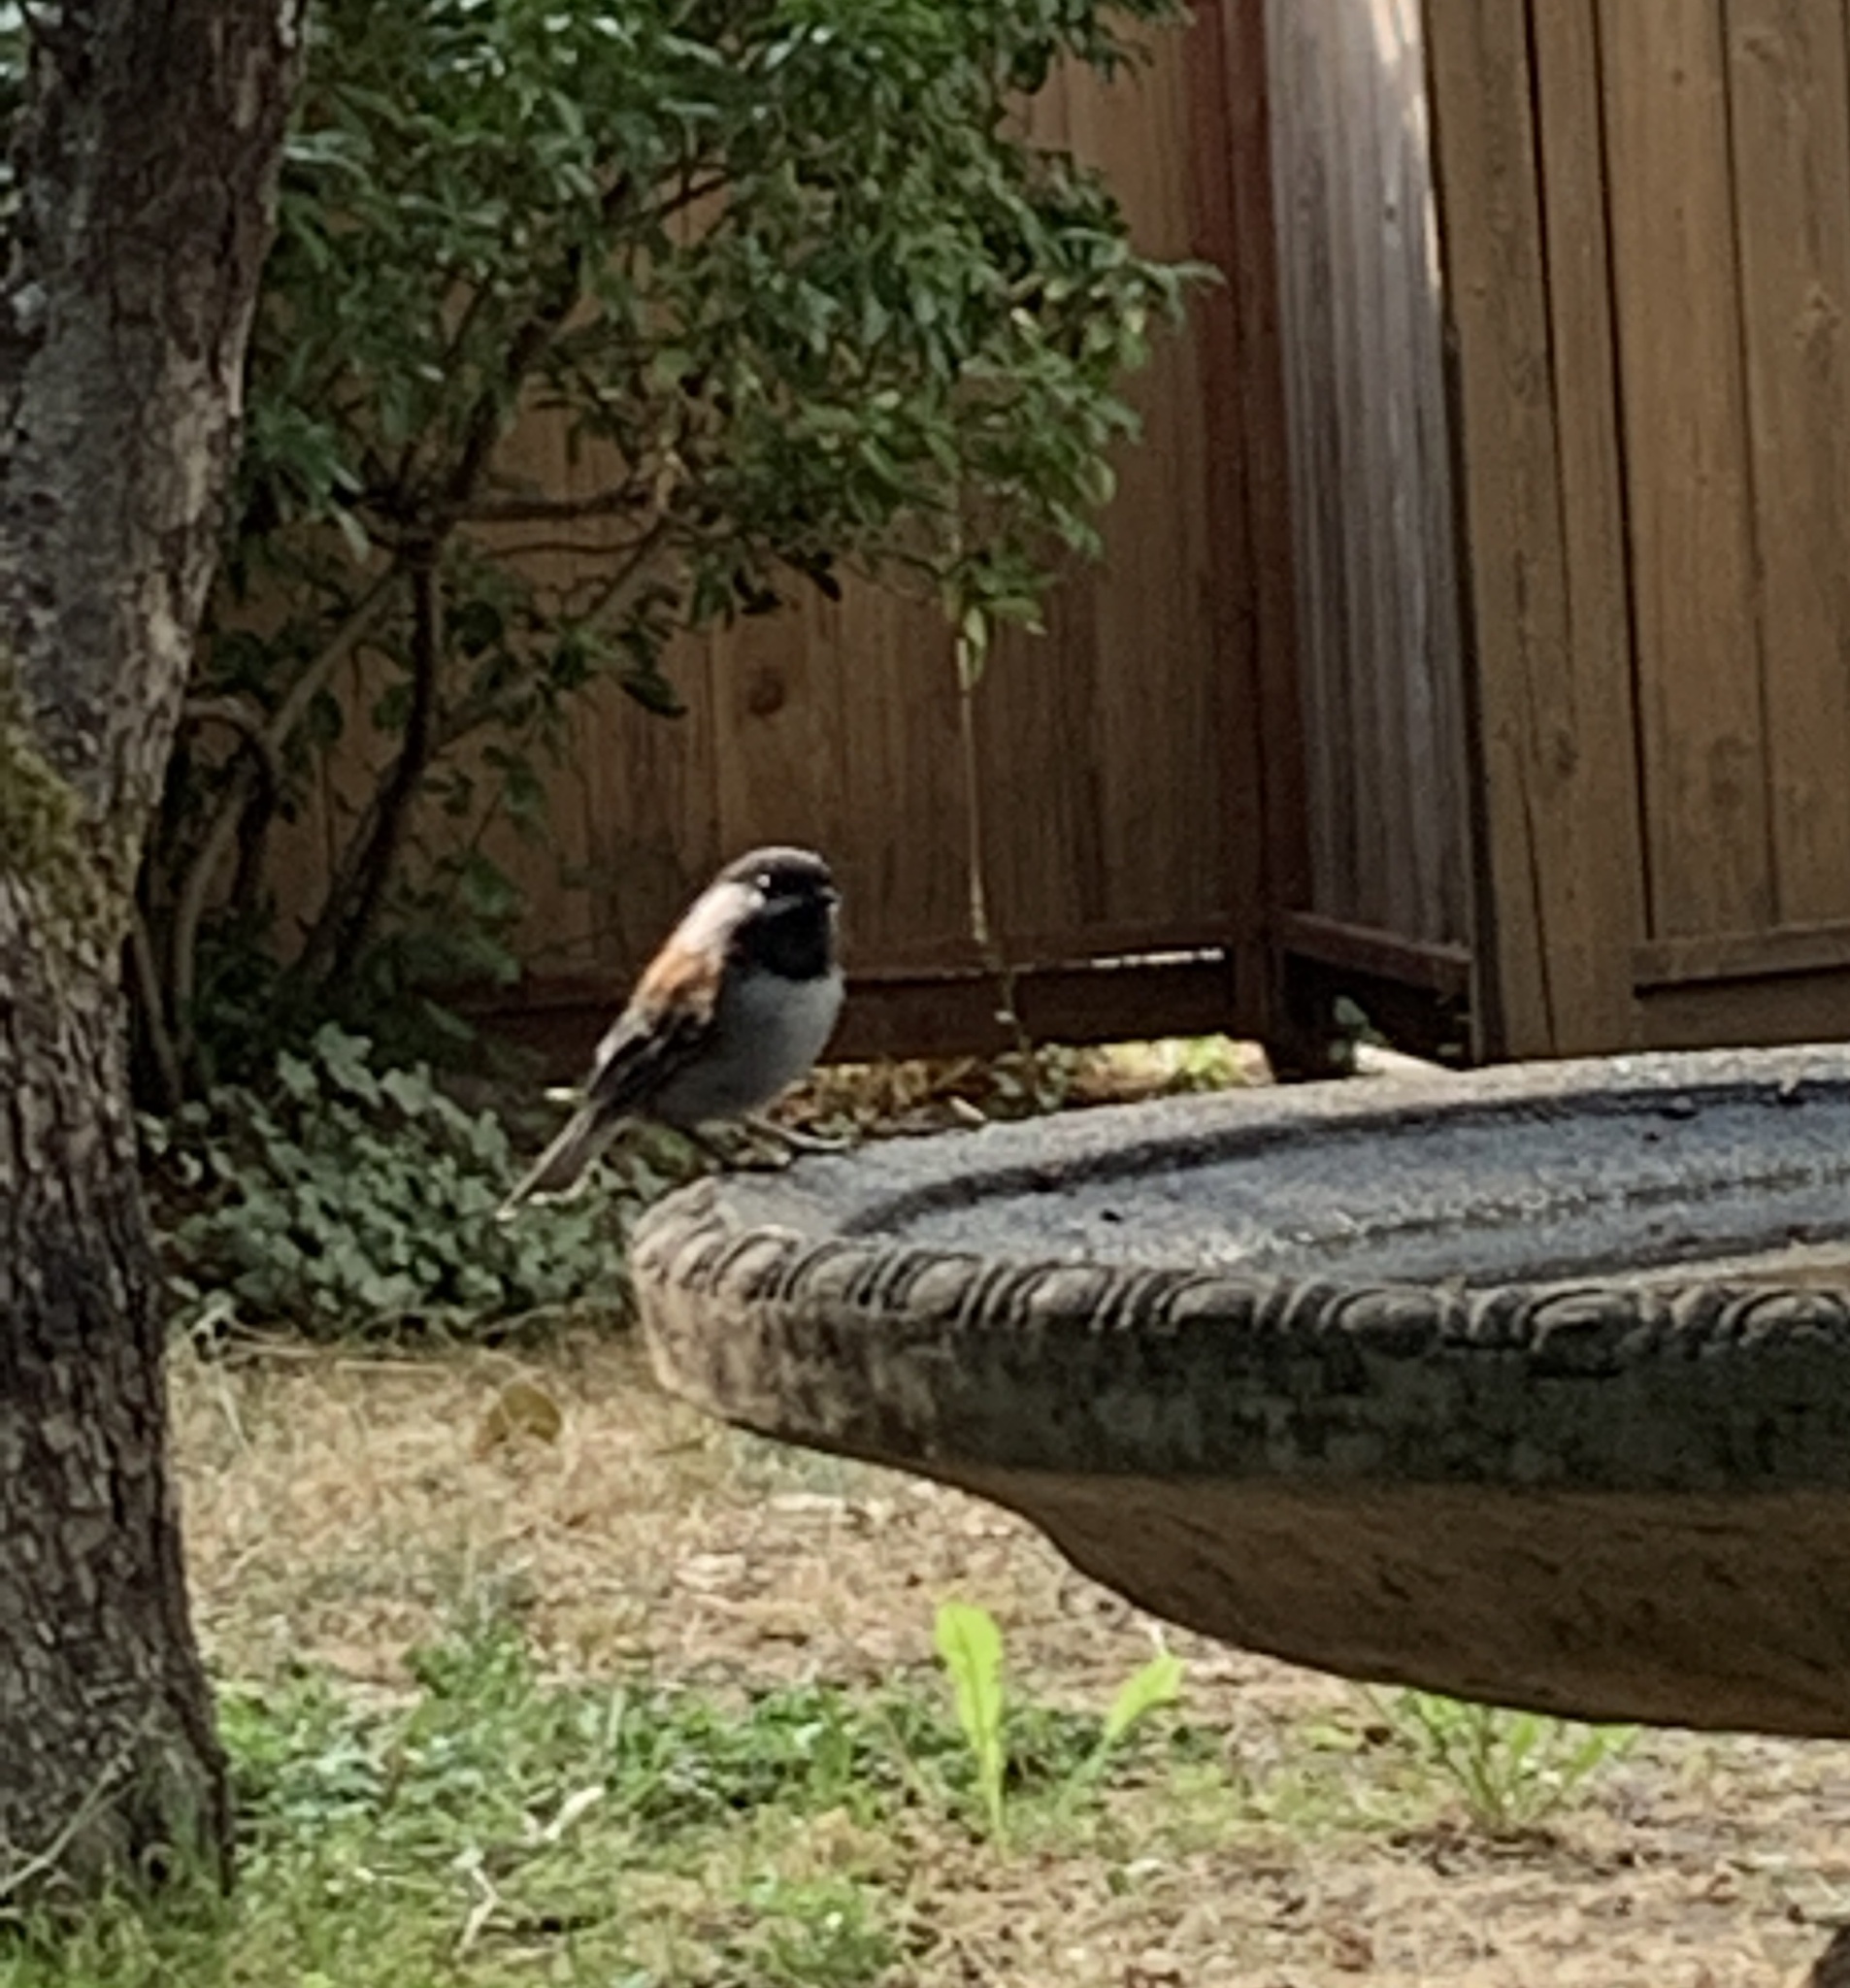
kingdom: Animalia
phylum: Chordata
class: Aves
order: Passeriformes
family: Paridae
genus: Poecile
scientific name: Poecile rufescens
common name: Chestnut-backed chickadee
